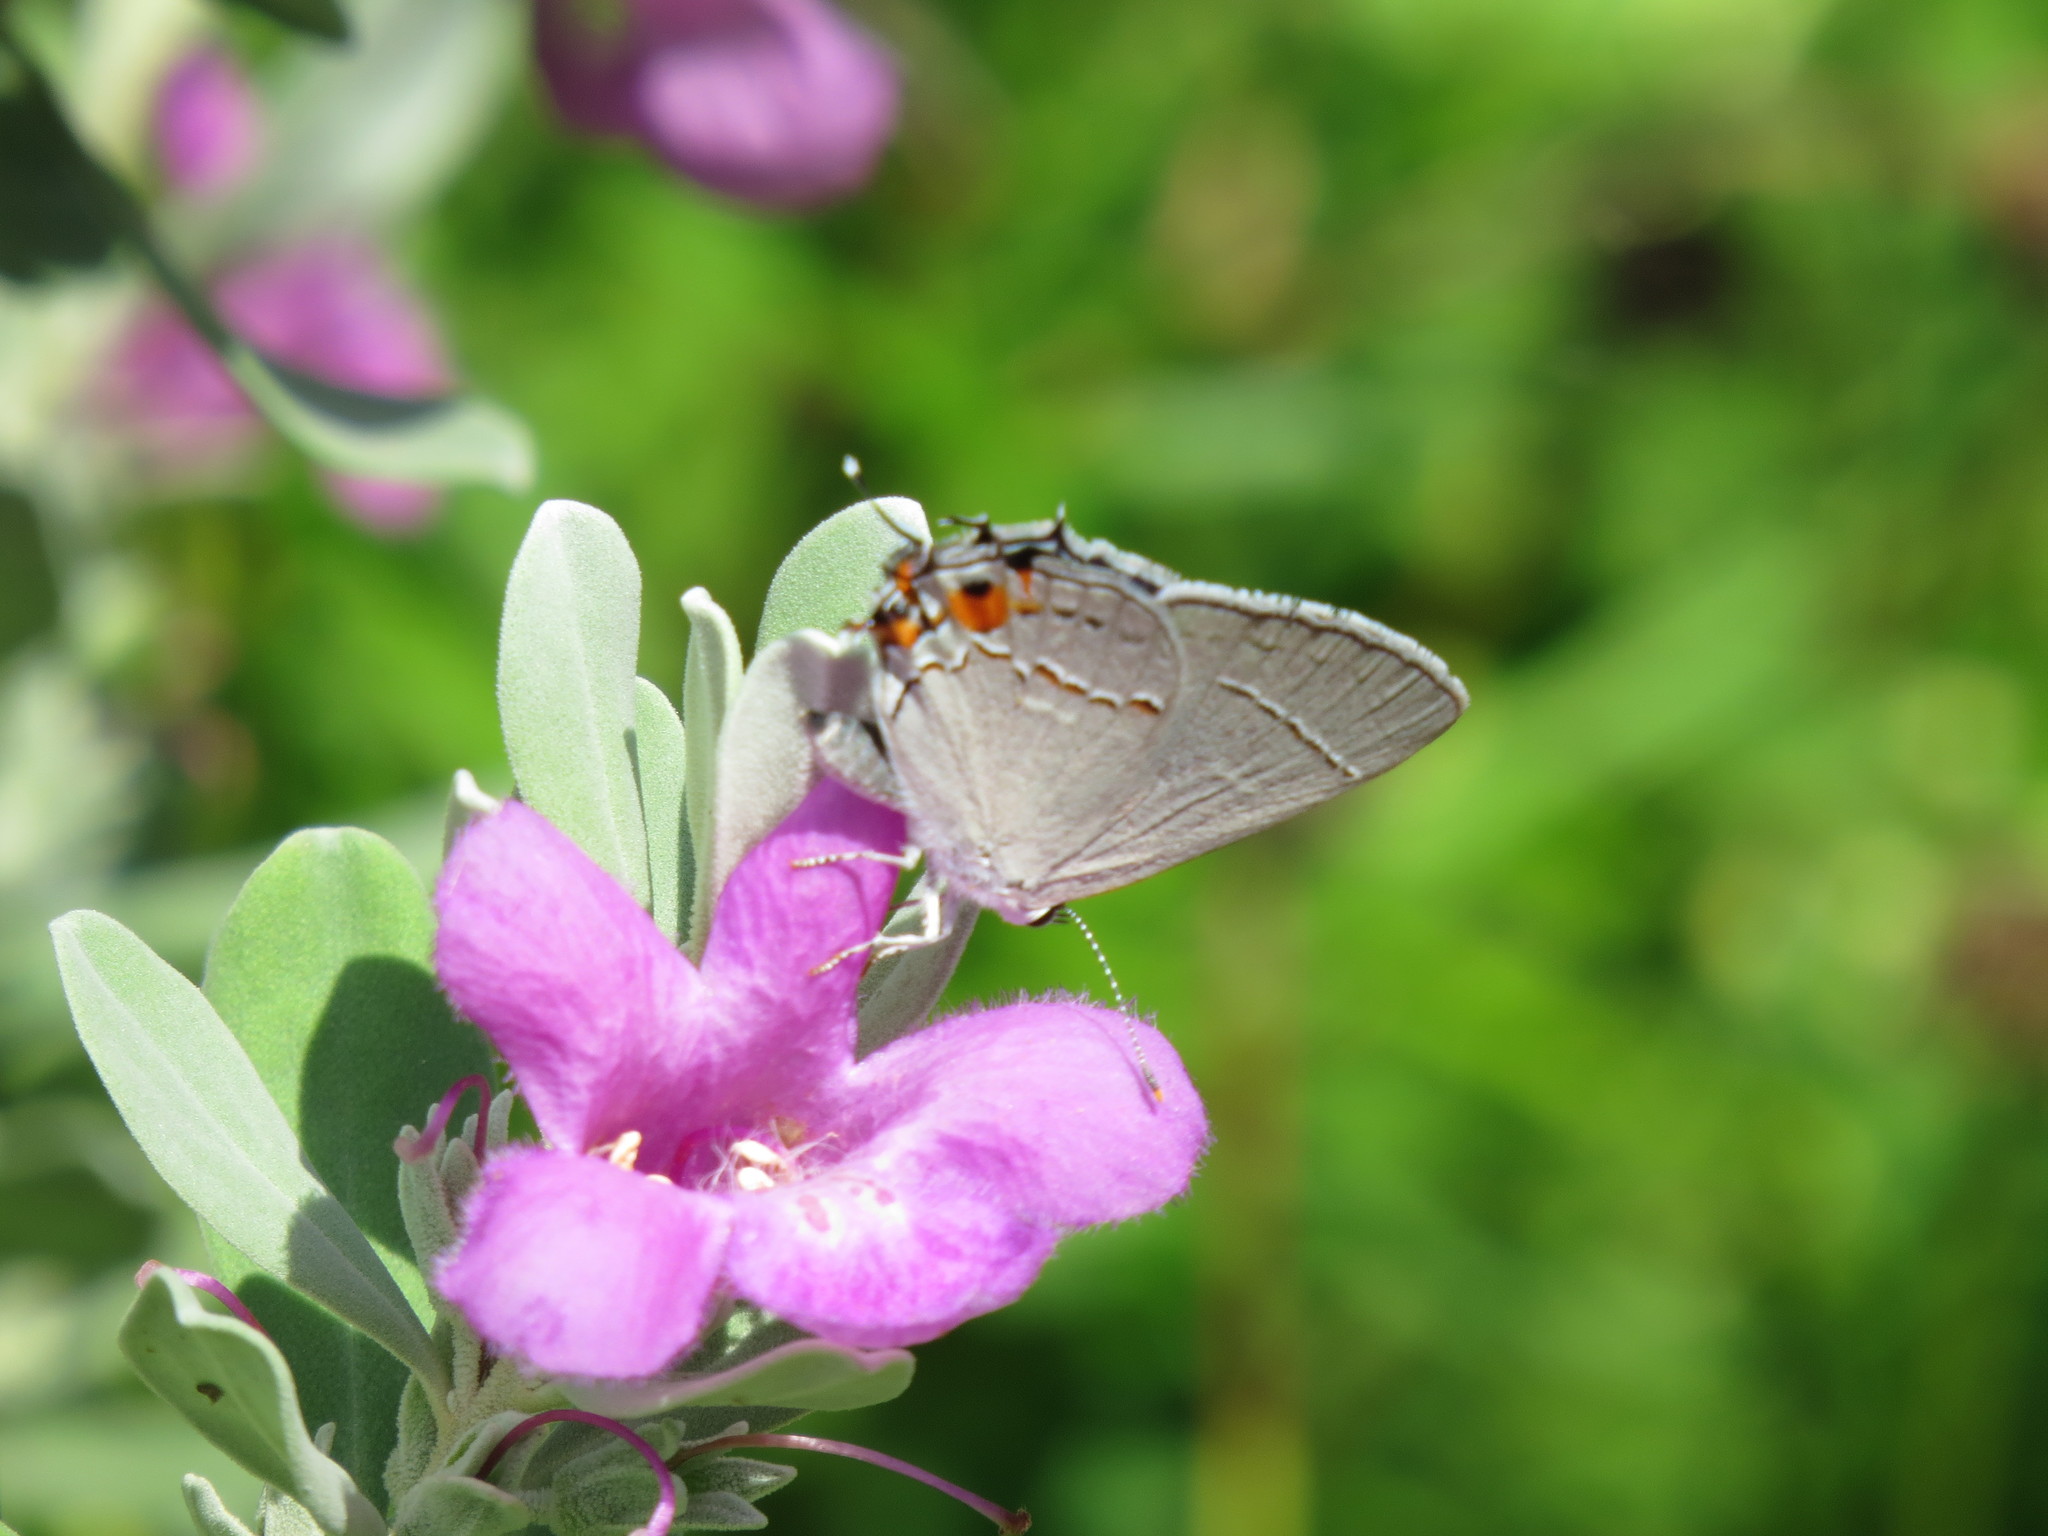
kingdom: Animalia
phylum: Arthropoda
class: Insecta
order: Lepidoptera
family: Lycaenidae
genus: Strymon
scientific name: Strymon melinus
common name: Gray hairstreak
